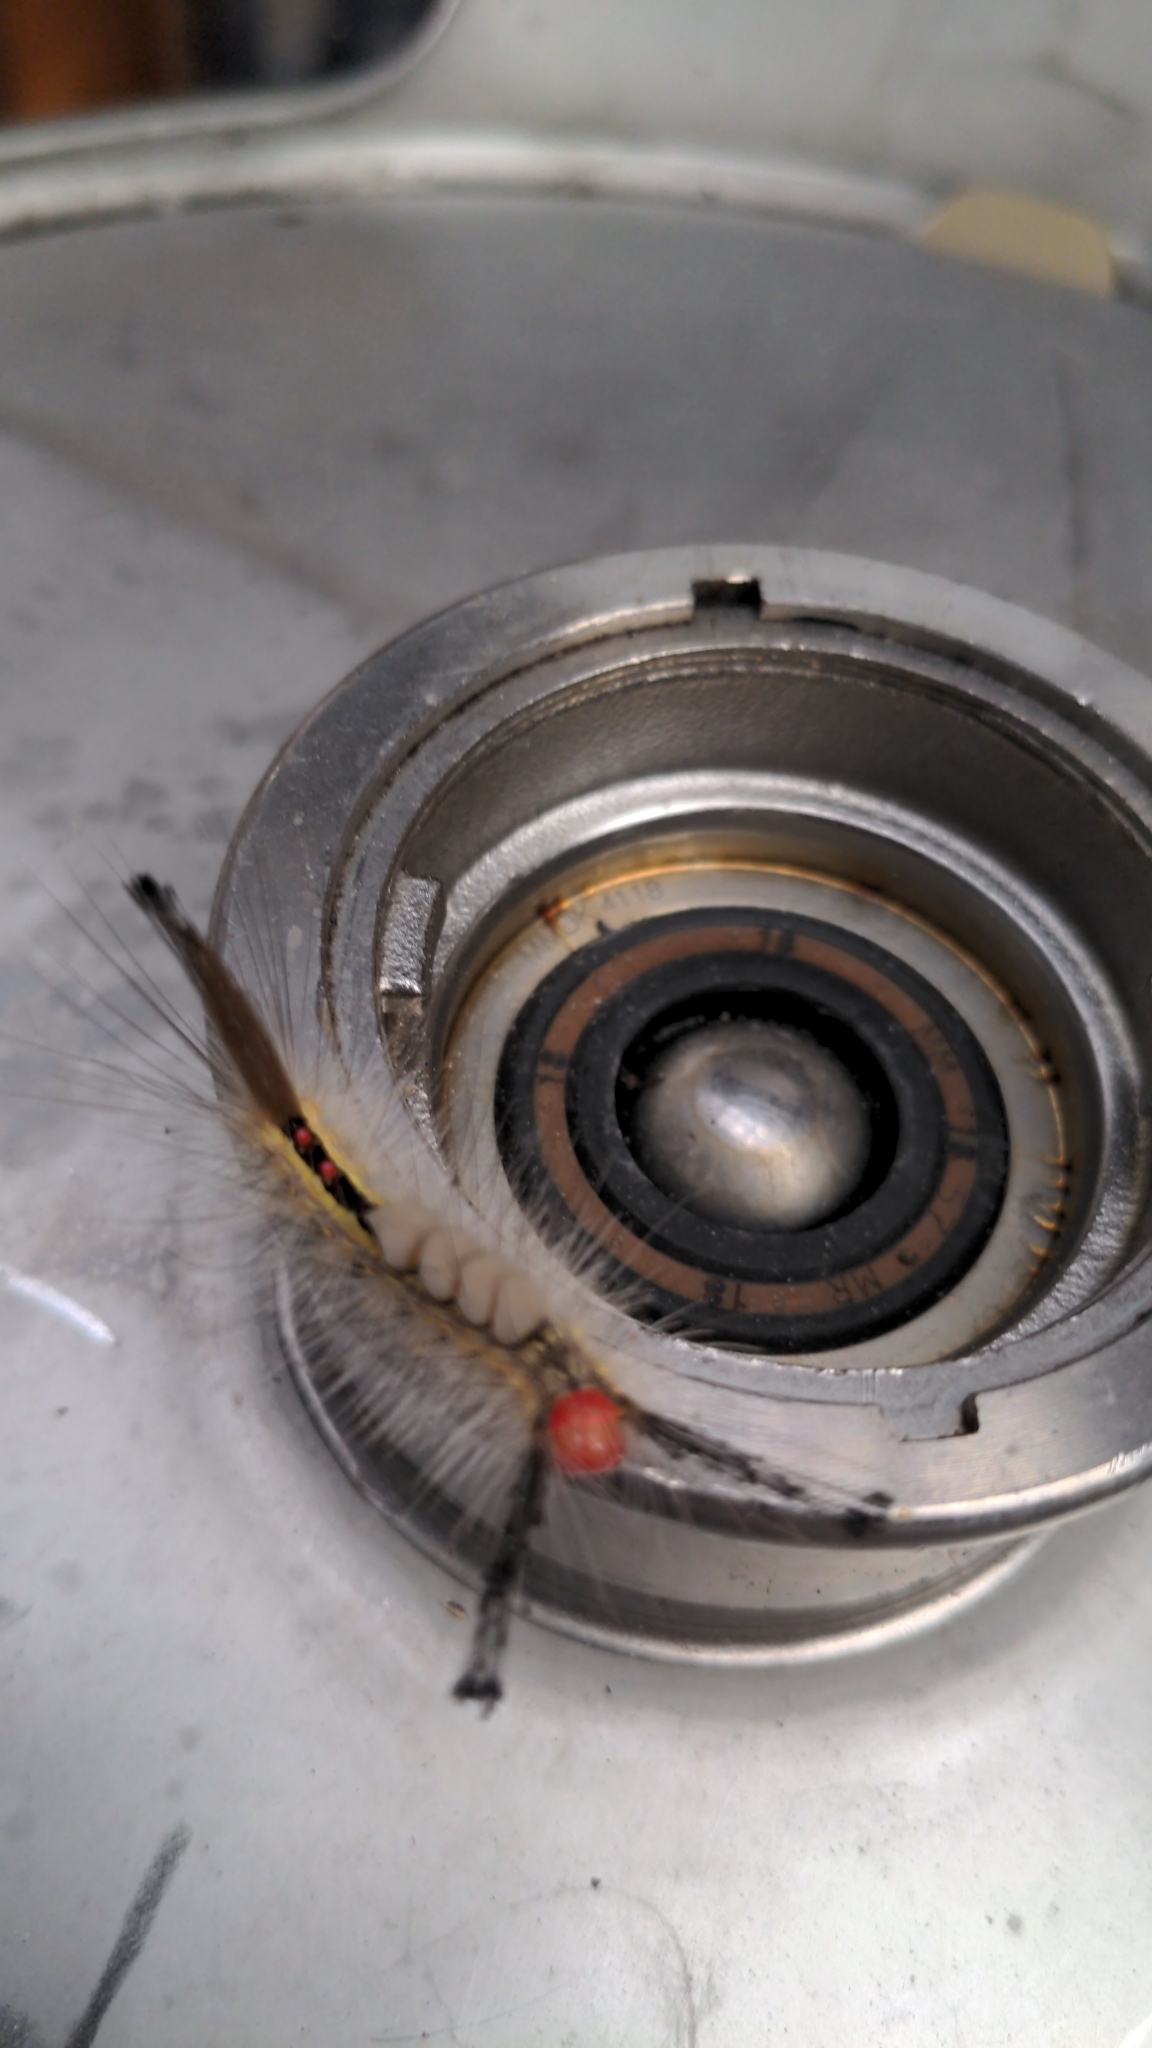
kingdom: Animalia
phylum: Arthropoda
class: Insecta
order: Lepidoptera
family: Erebidae
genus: Orgyia
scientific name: Orgyia leucostigma
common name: White-marked tussock moth
